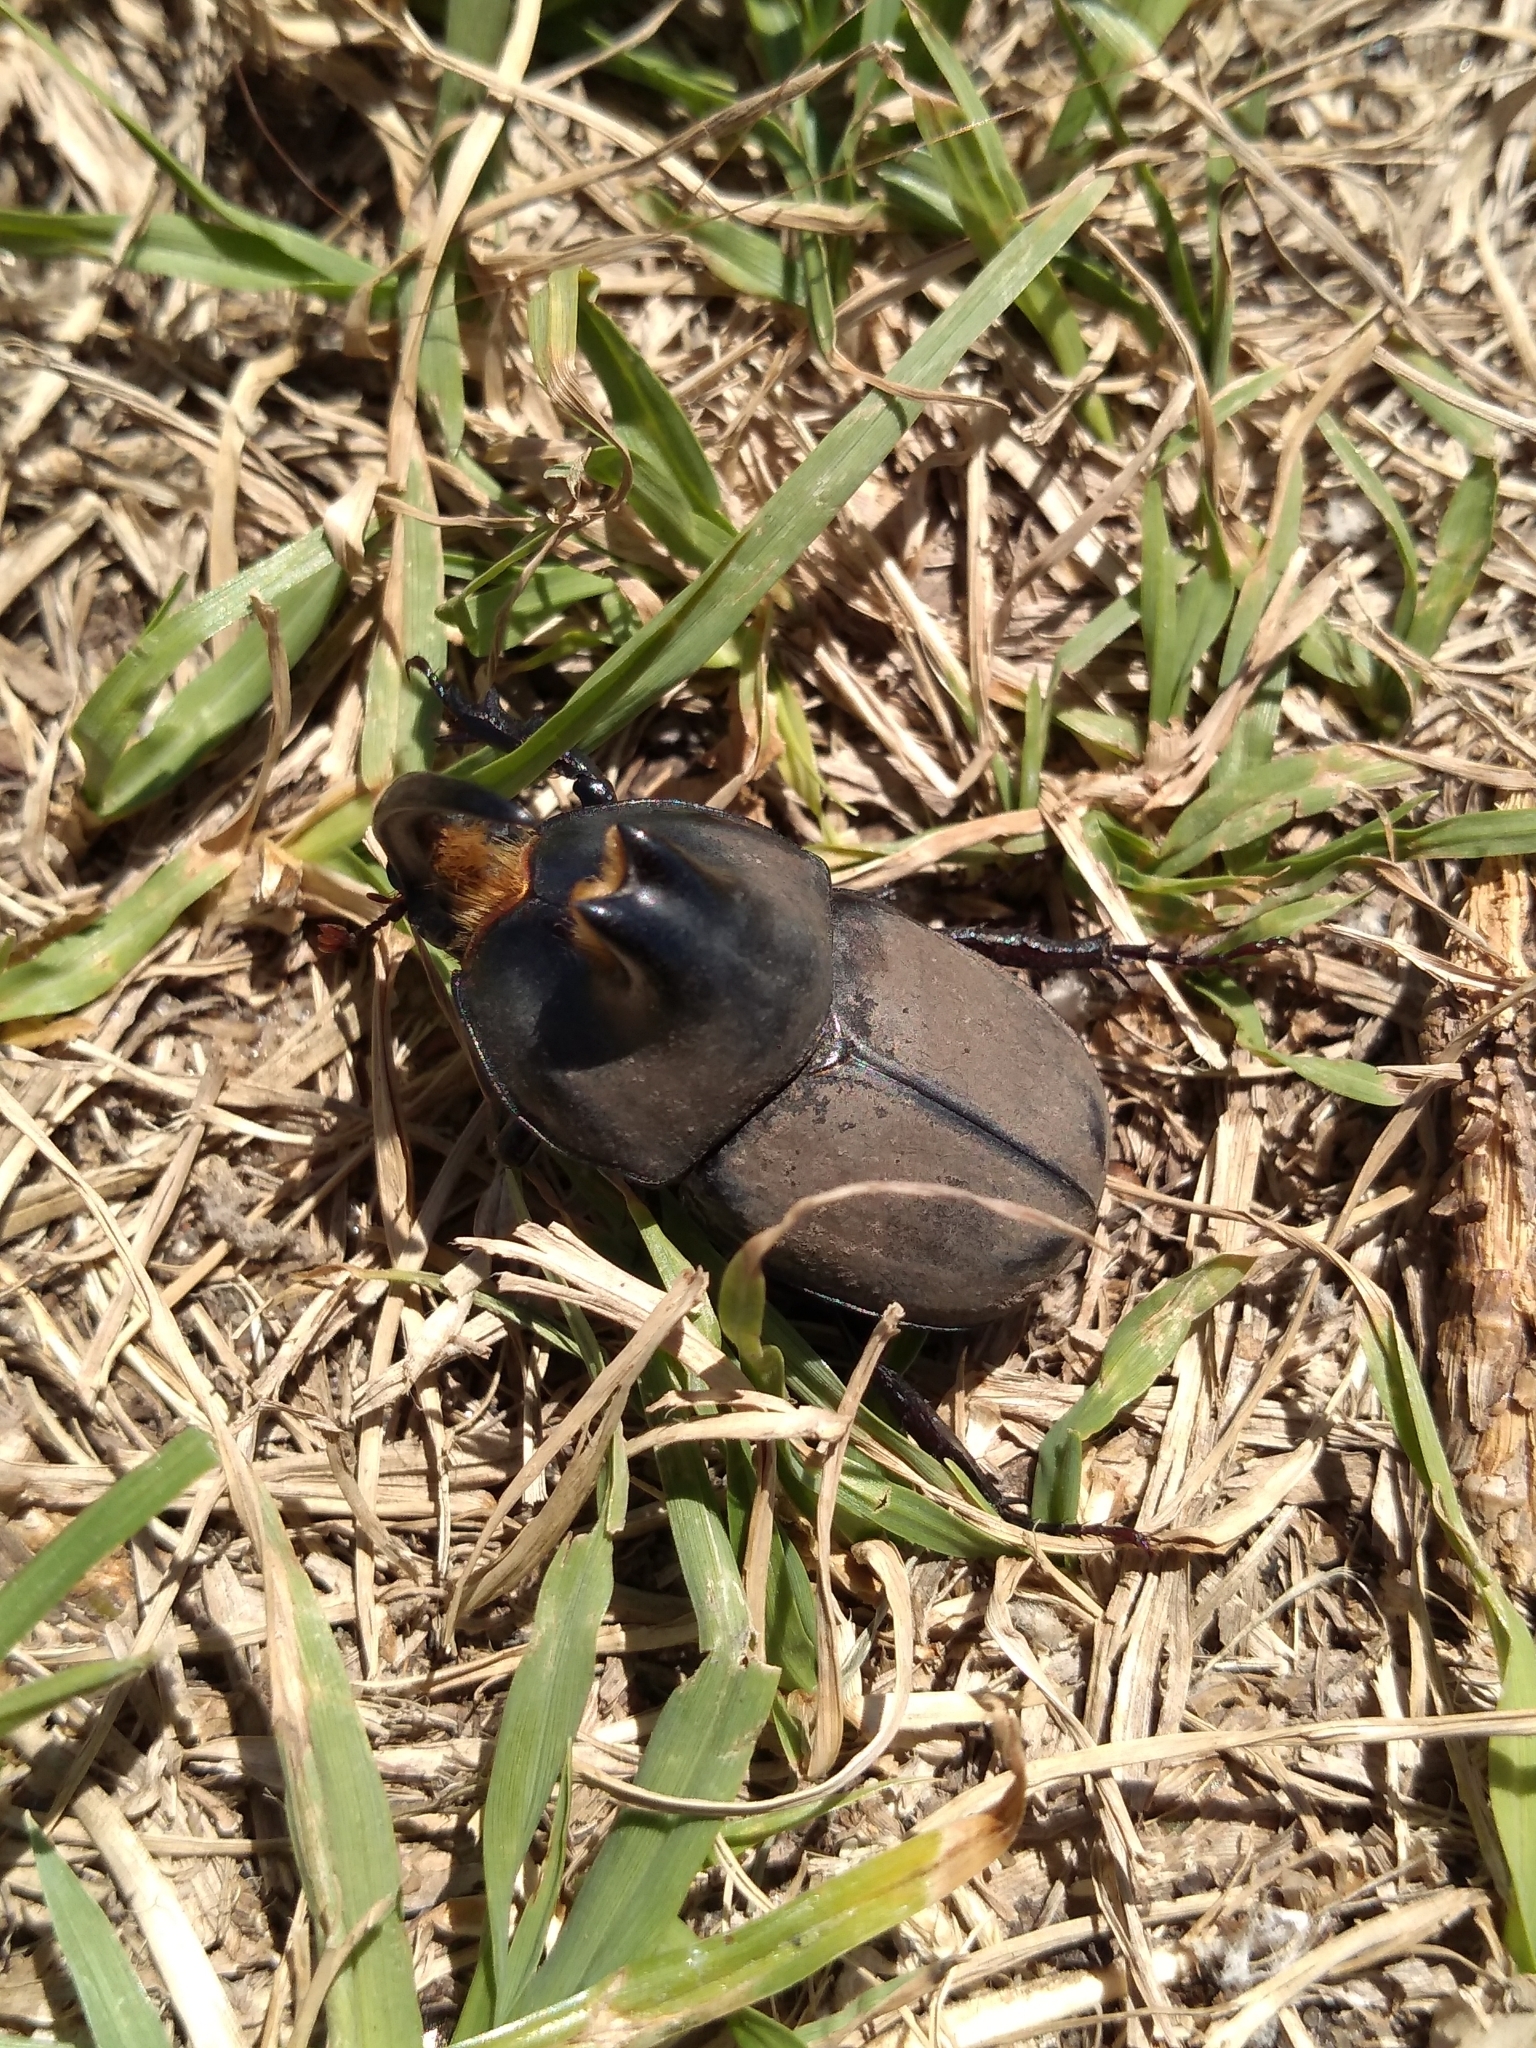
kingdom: Animalia
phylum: Arthropoda
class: Insecta
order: Coleoptera
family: Scarabaeidae
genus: Diloboderus
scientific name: Diloboderus abderus
